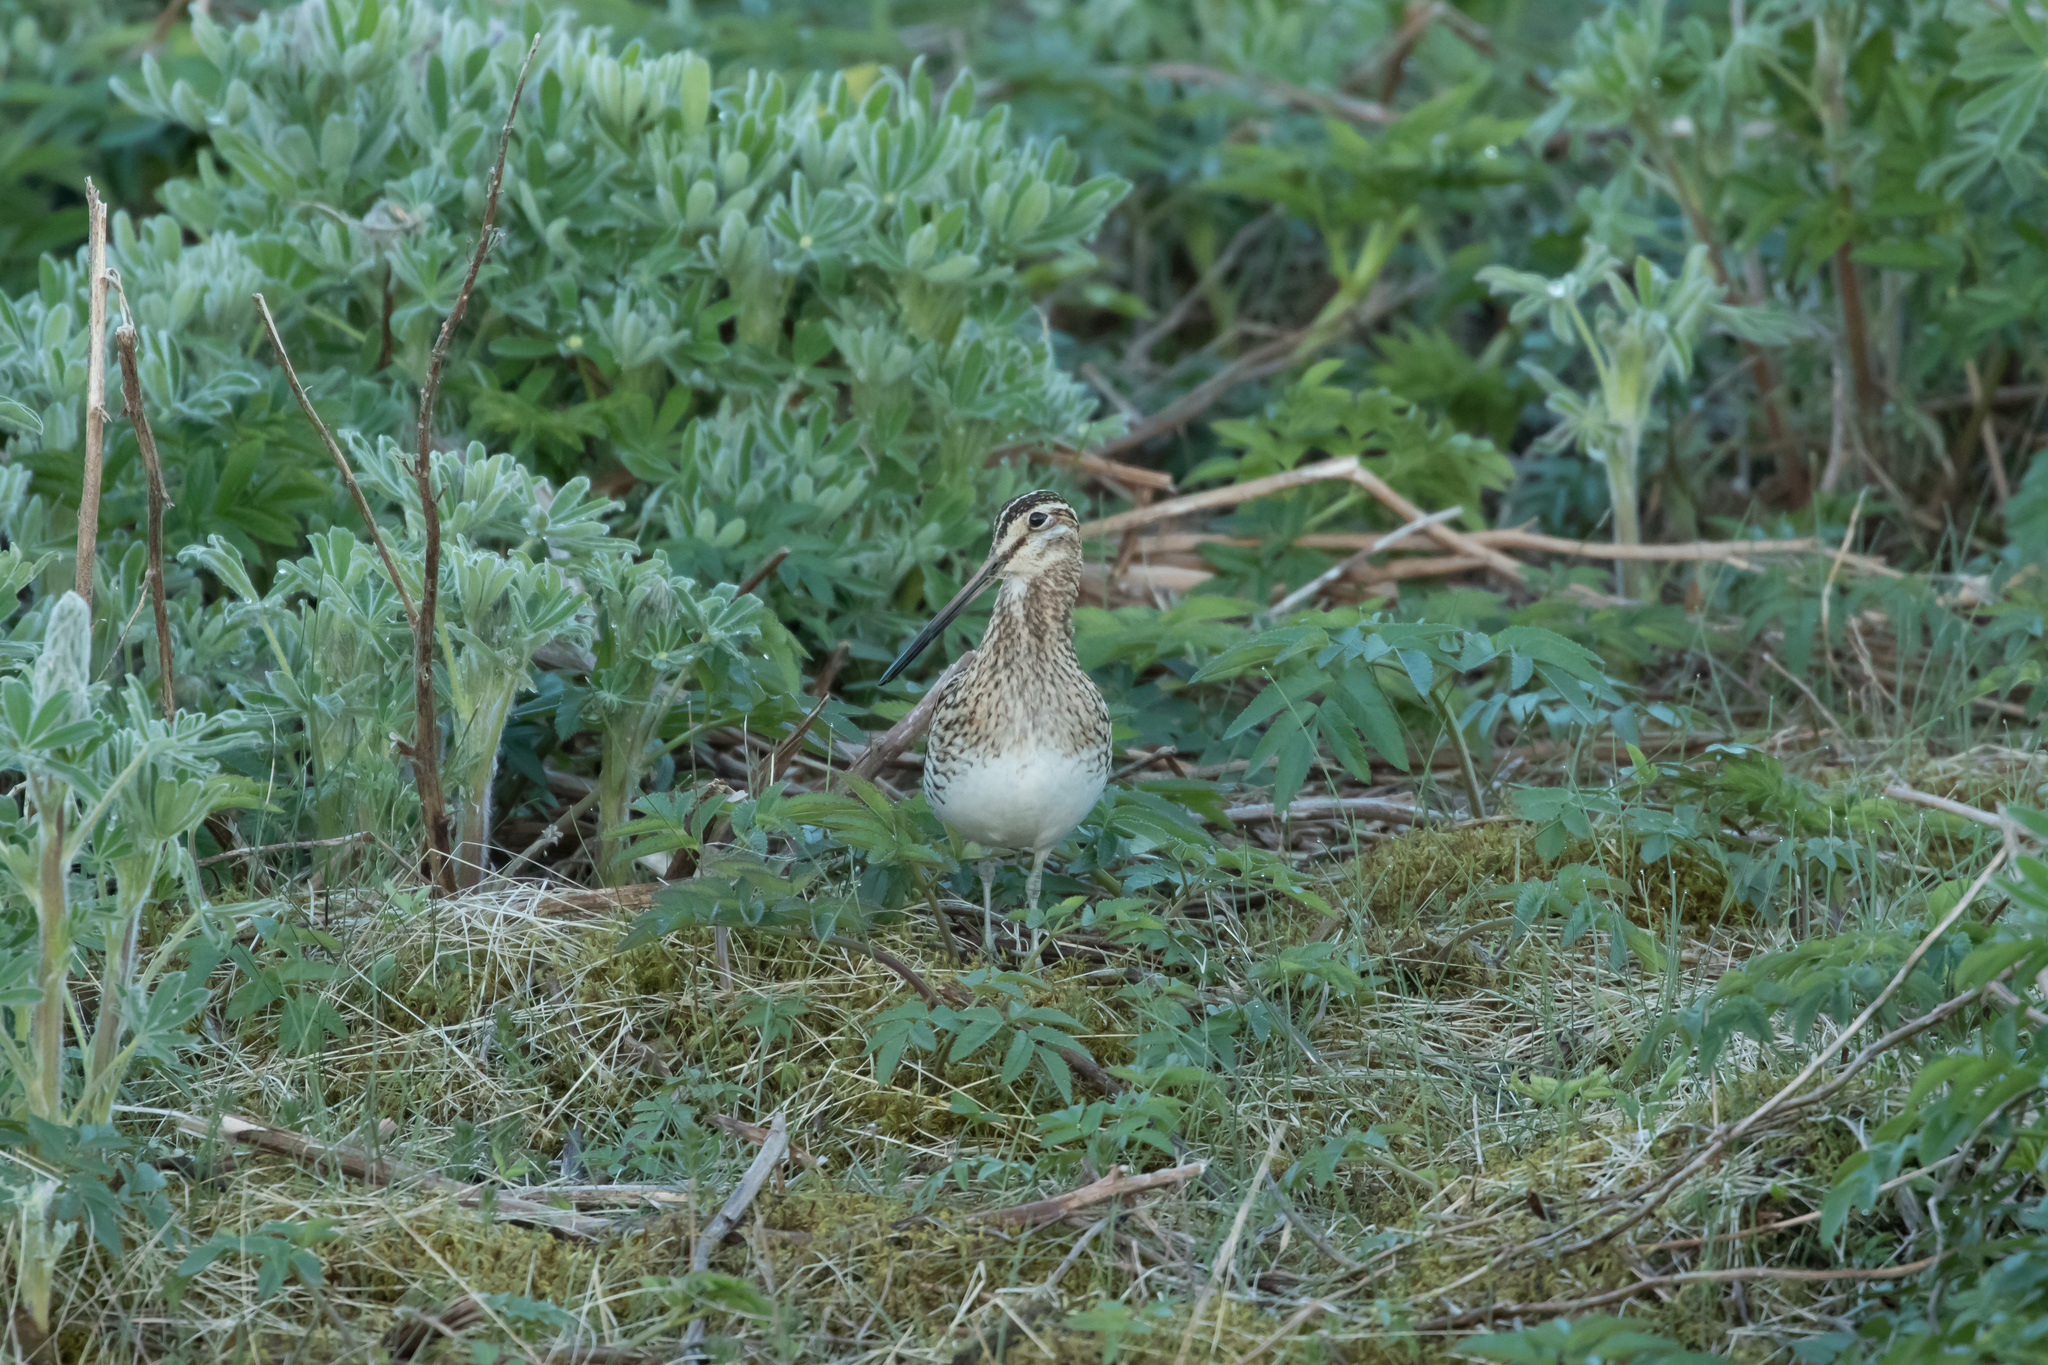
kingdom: Animalia
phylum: Chordata
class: Aves
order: Charadriiformes
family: Scolopacidae
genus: Gallinago
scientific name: Gallinago gallinago
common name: Common snipe
